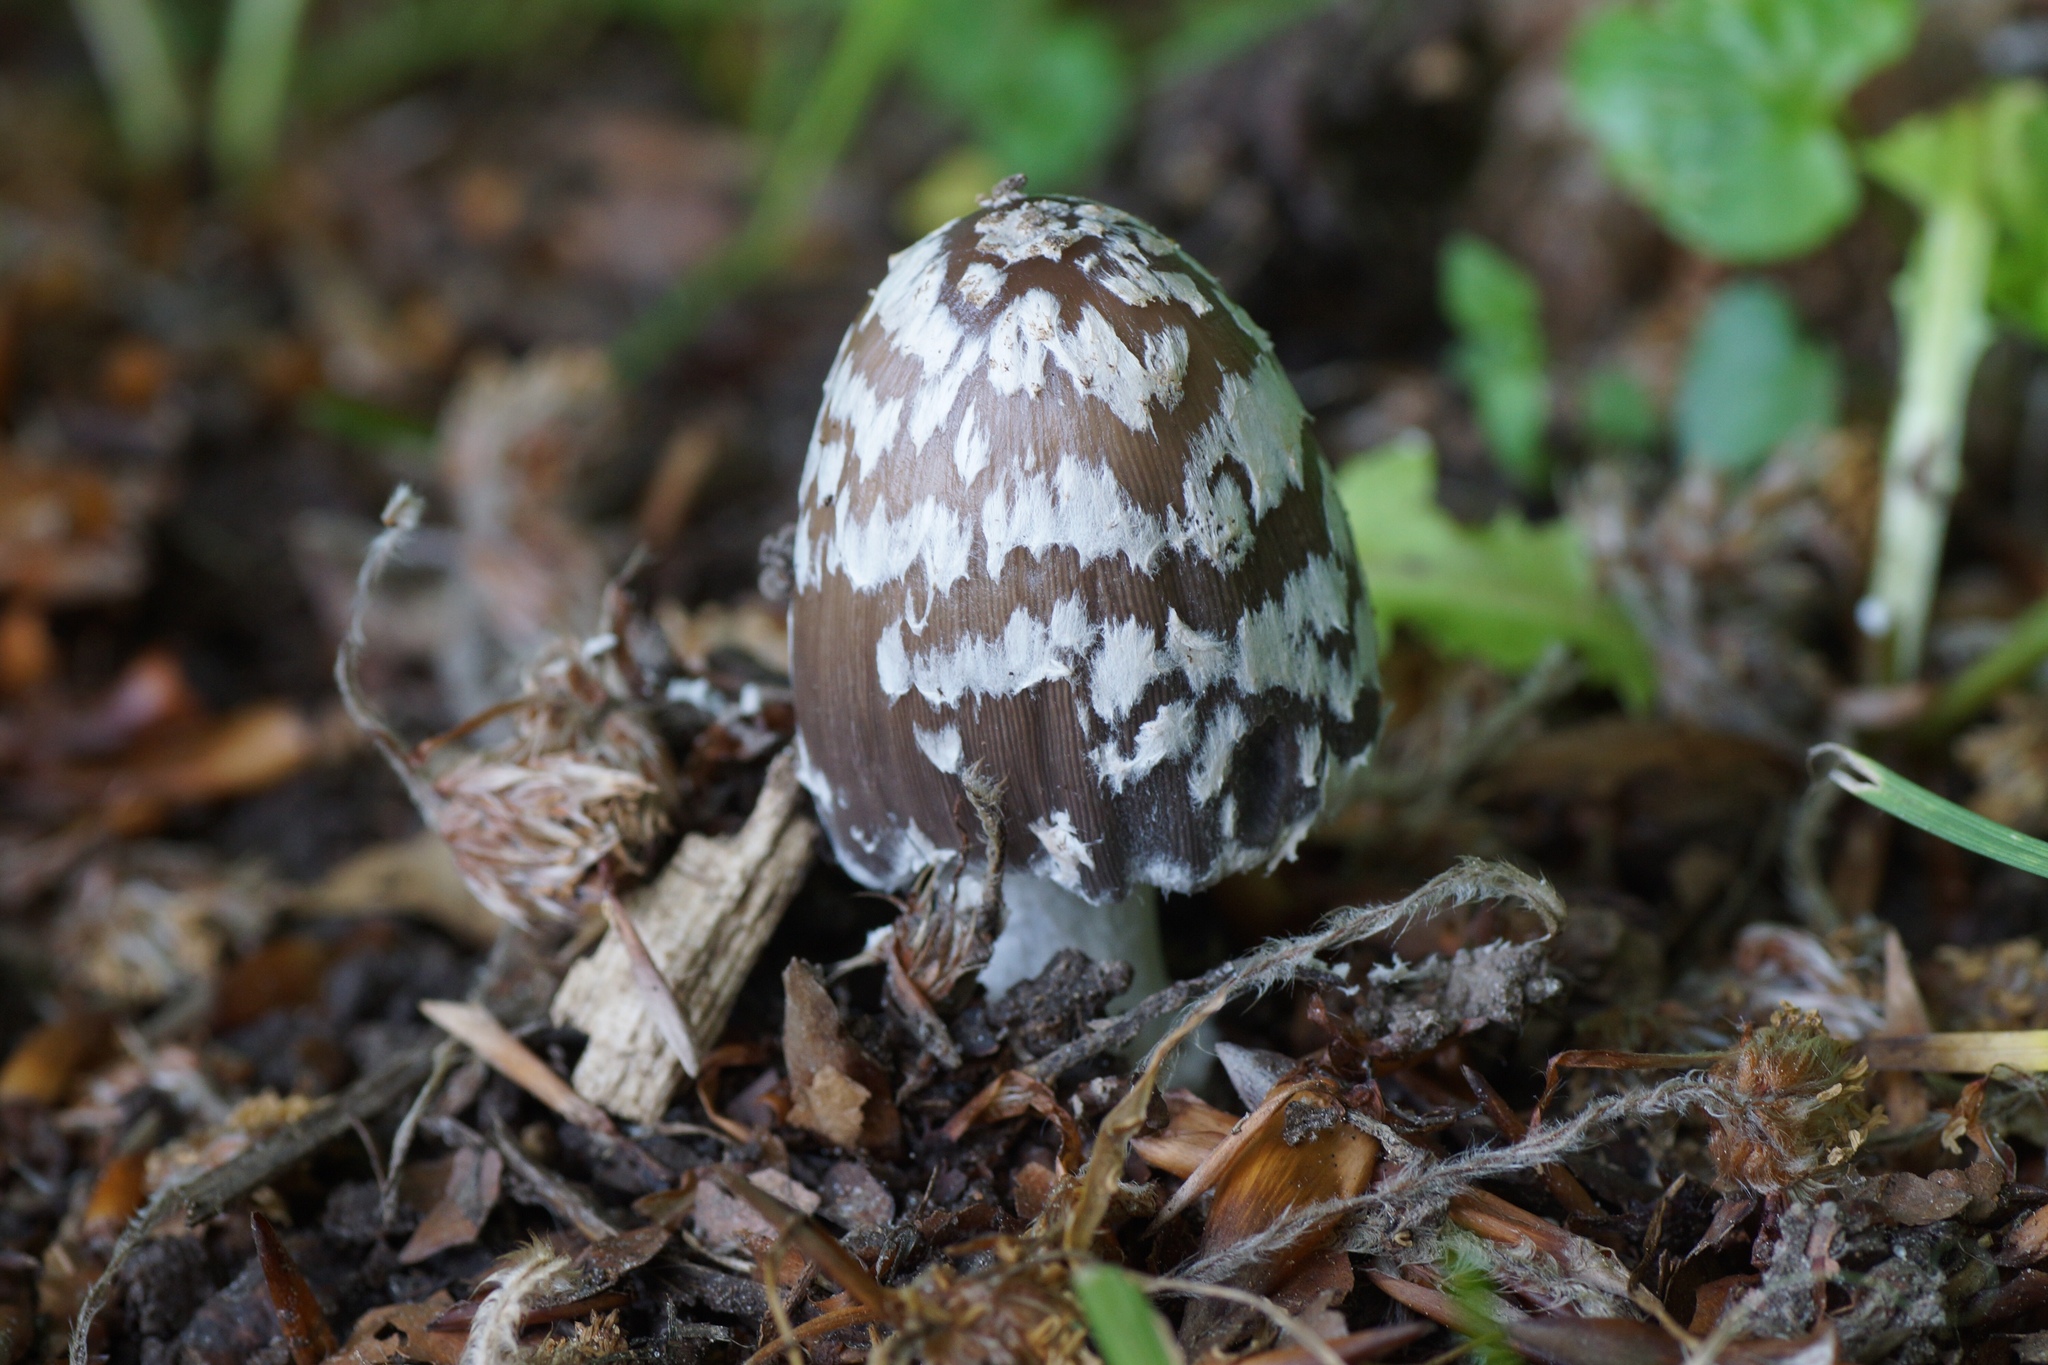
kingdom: Fungi
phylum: Basidiomycota
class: Agaricomycetes
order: Agaricales
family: Psathyrellaceae
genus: Coprinopsis
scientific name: Coprinopsis picacea
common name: Magpie inkcap
